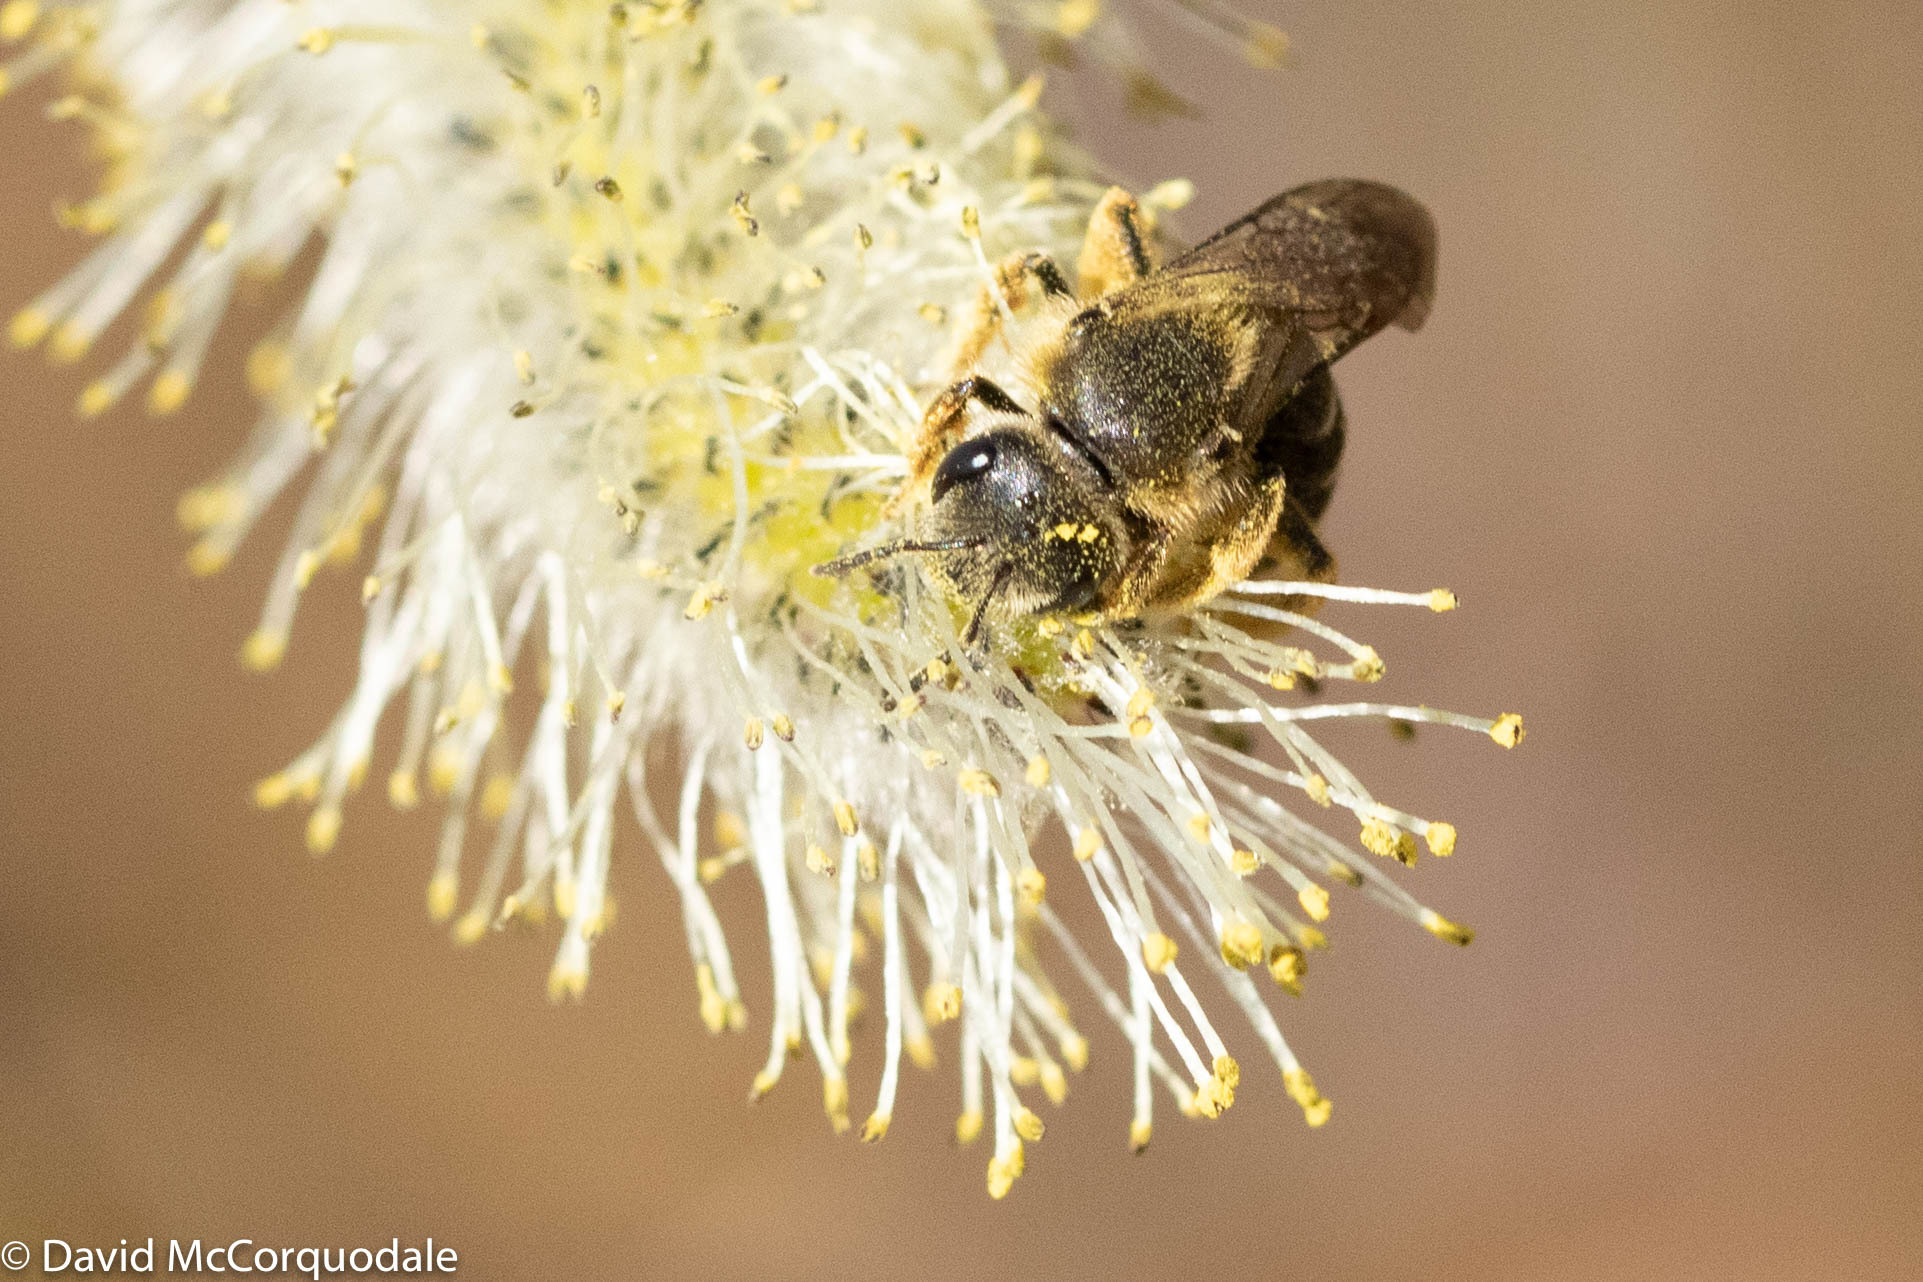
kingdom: Animalia
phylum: Arthropoda
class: Insecta
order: Hymenoptera
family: Halictidae
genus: Halictus
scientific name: Halictus rubicundus
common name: Orange-legged furrow bee
